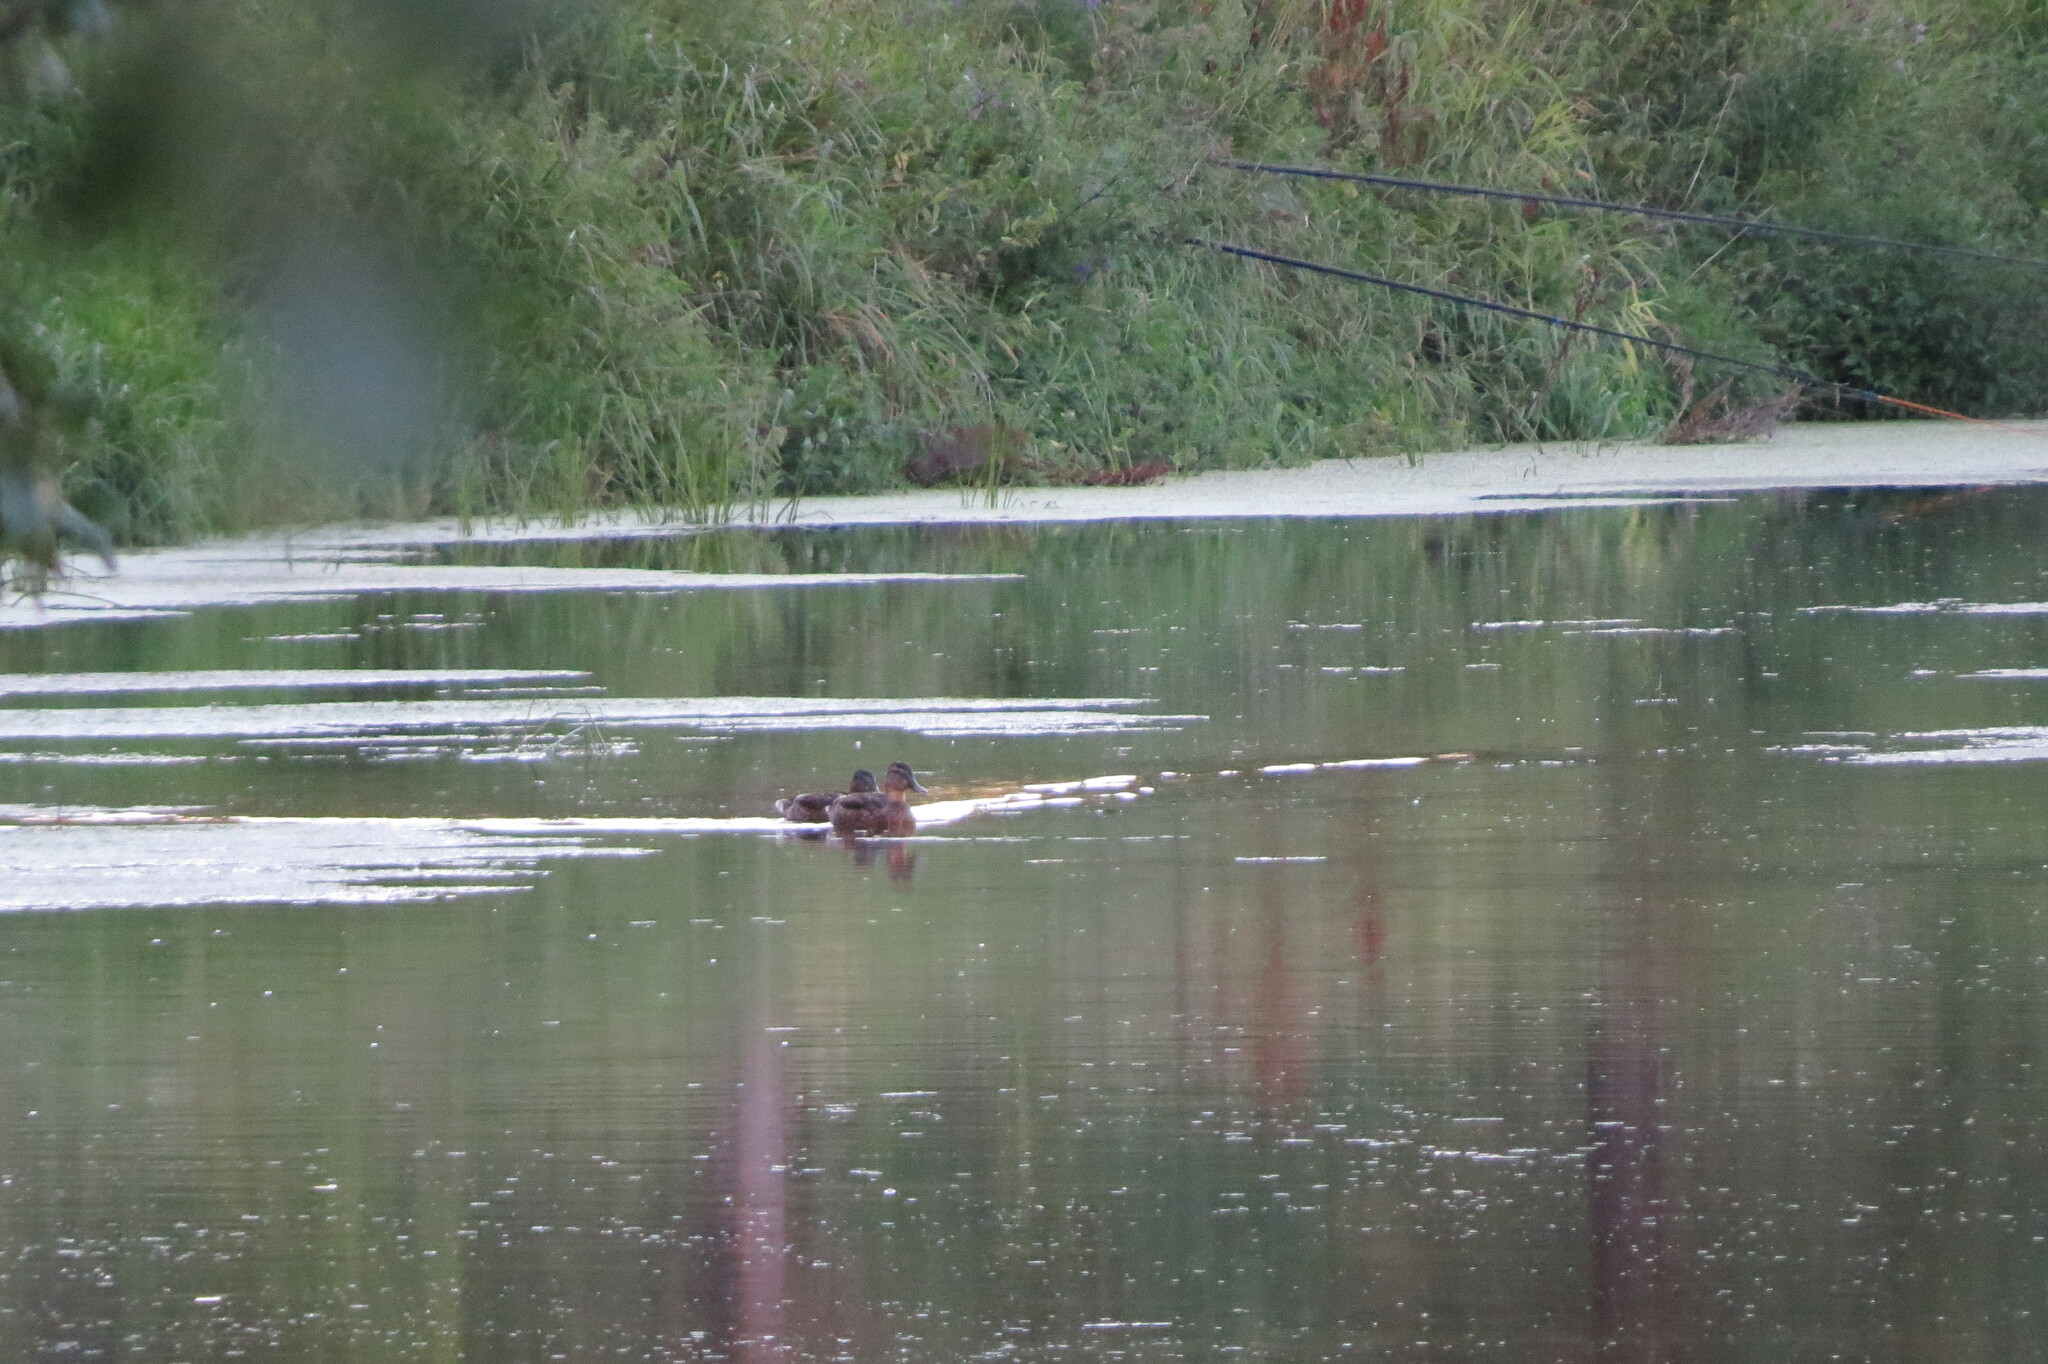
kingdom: Animalia
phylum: Chordata
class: Aves
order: Anseriformes
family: Anatidae
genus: Anas
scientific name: Anas platyrhynchos
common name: Mallard
